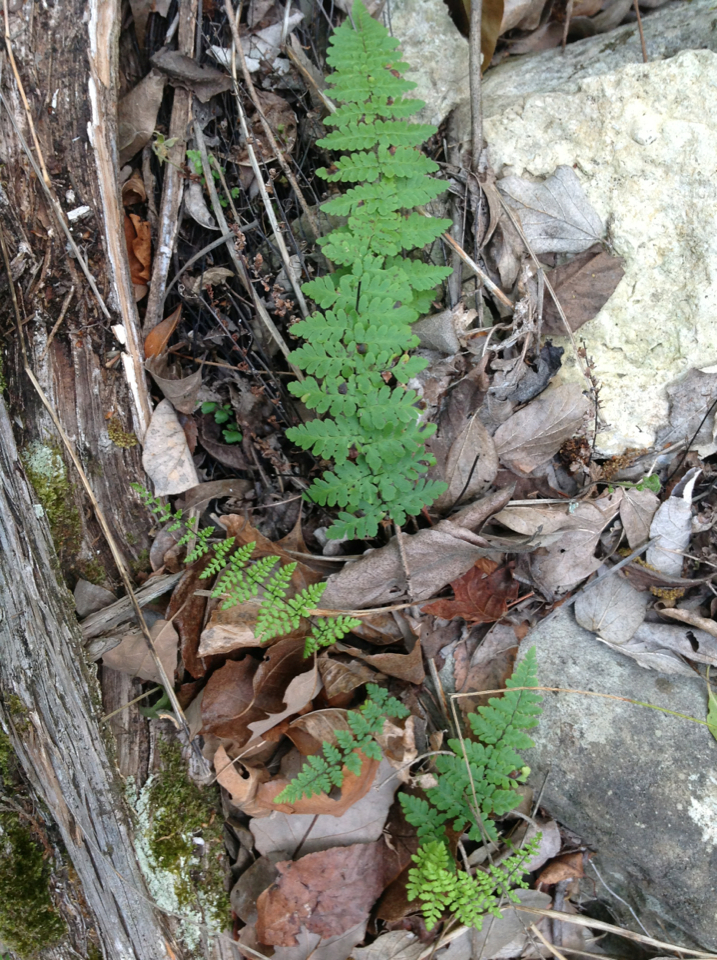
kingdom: Plantae
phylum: Tracheophyta
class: Polypodiopsida
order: Polypodiales
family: Pteridaceae
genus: Myriopteris
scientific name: Myriopteris alabamensis
